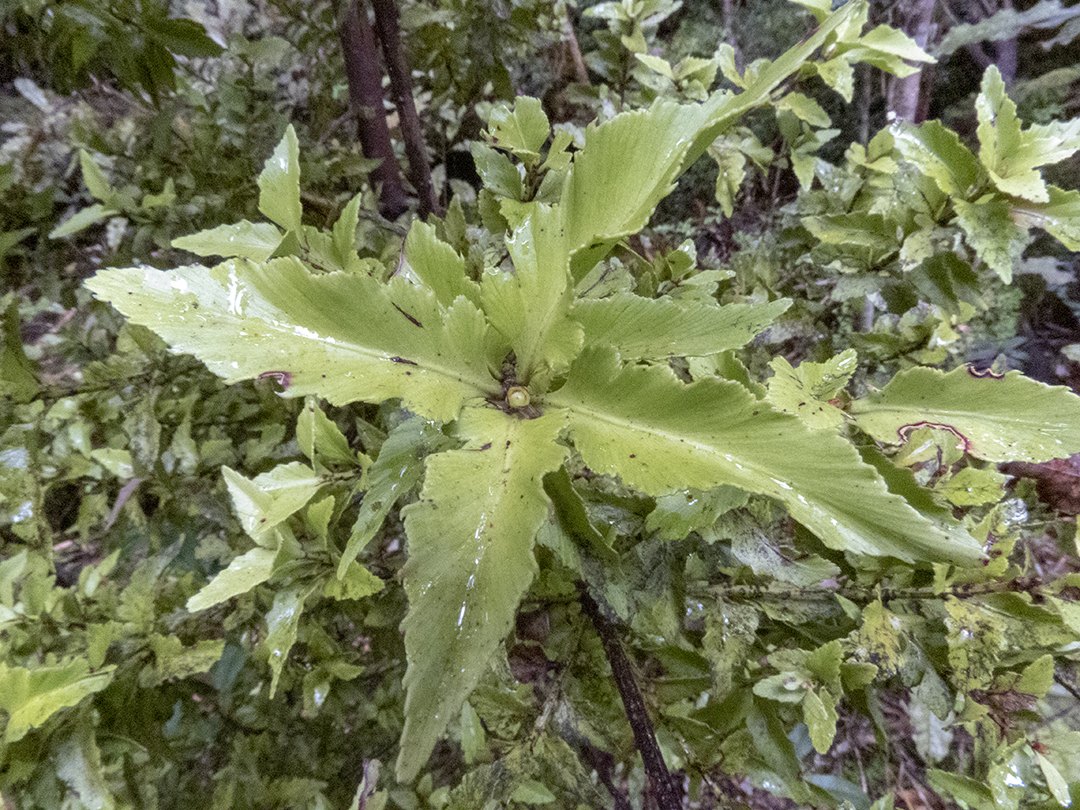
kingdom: Plantae
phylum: Tracheophyta
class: Pinopsida
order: Pinales
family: Phyllocladaceae
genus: Phyllocladus
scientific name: Phyllocladus trichomanoides
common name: Celery pine
